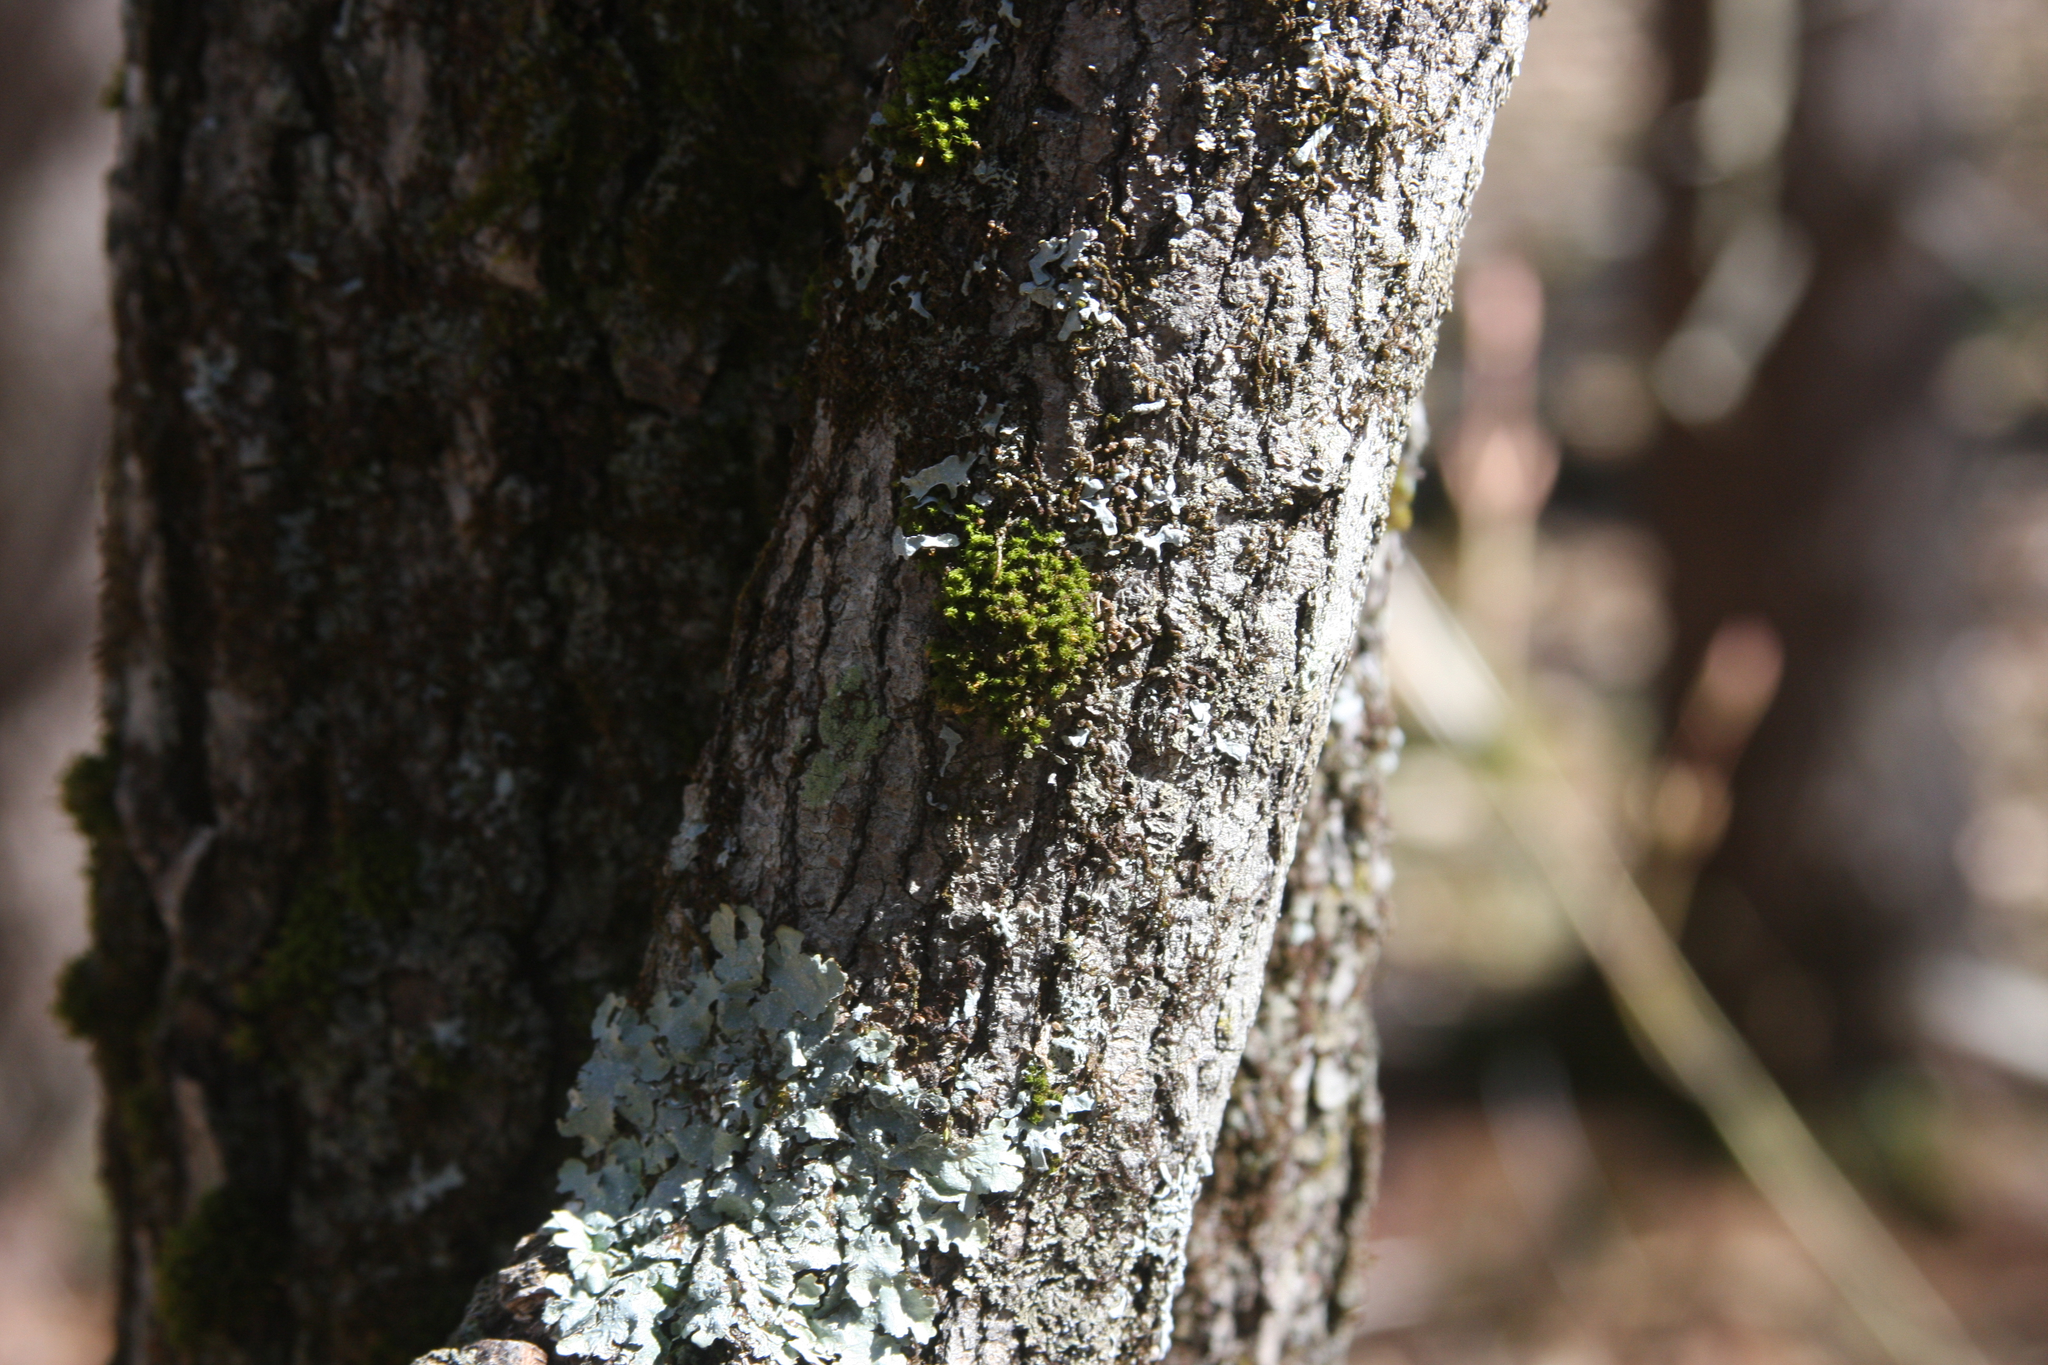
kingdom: Plantae
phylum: Bryophyta
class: Bryopsida
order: Orthotrichales
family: Orthotrichaceae
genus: Ulota
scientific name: Ulota crispa
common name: Crisped pincushion moss
